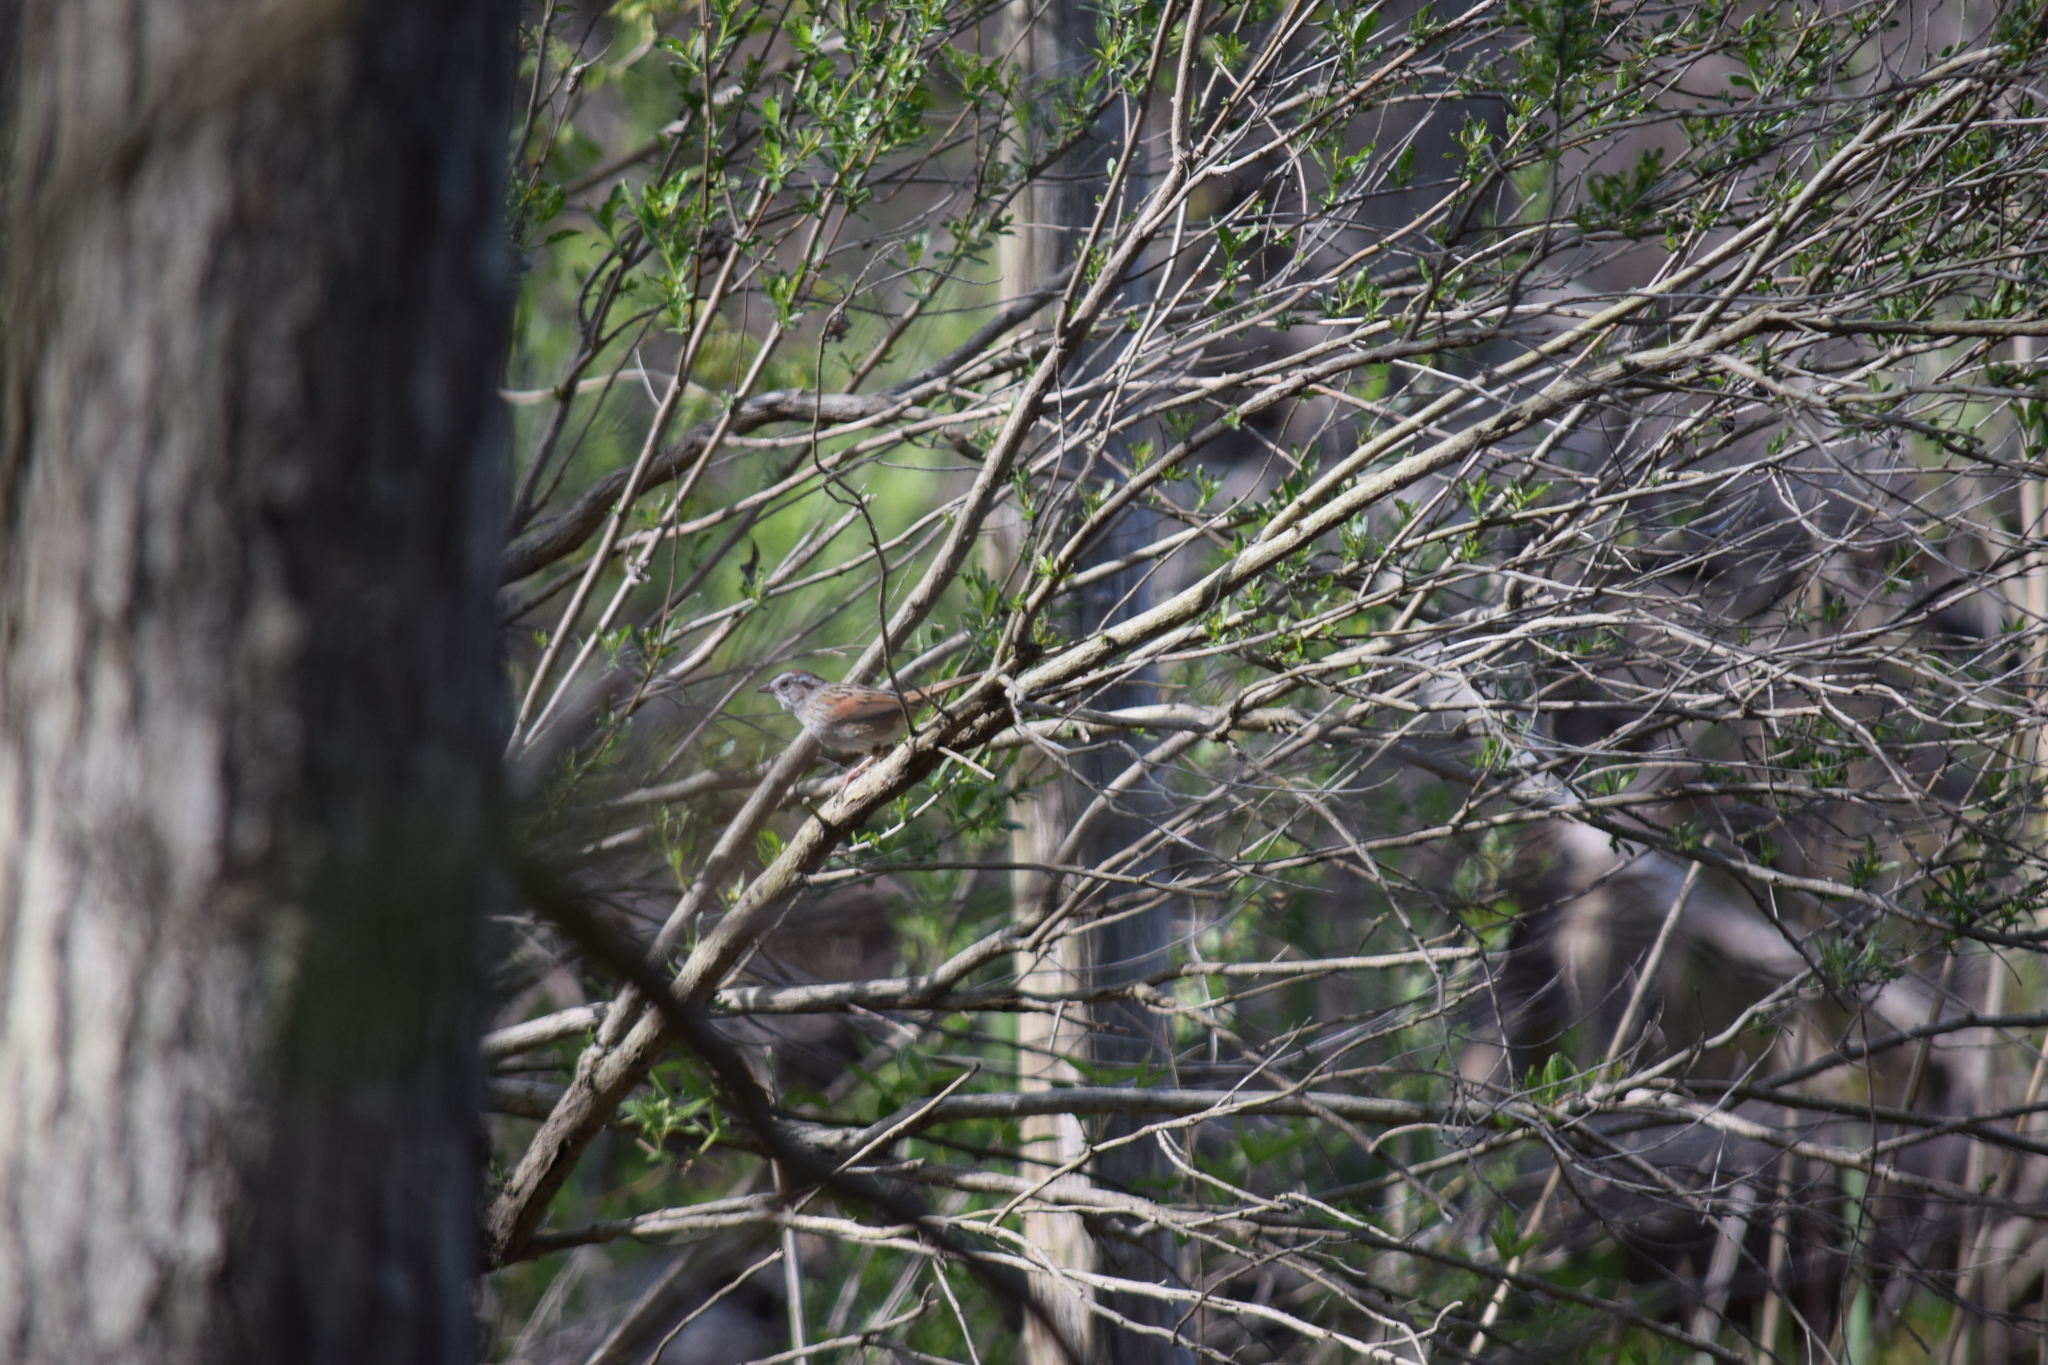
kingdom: Animalia
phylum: Chordata
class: Aves
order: Passeriformes
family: Passerellidae
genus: Melospiza
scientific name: Melospiza georgiana
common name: Swamp sparrow
